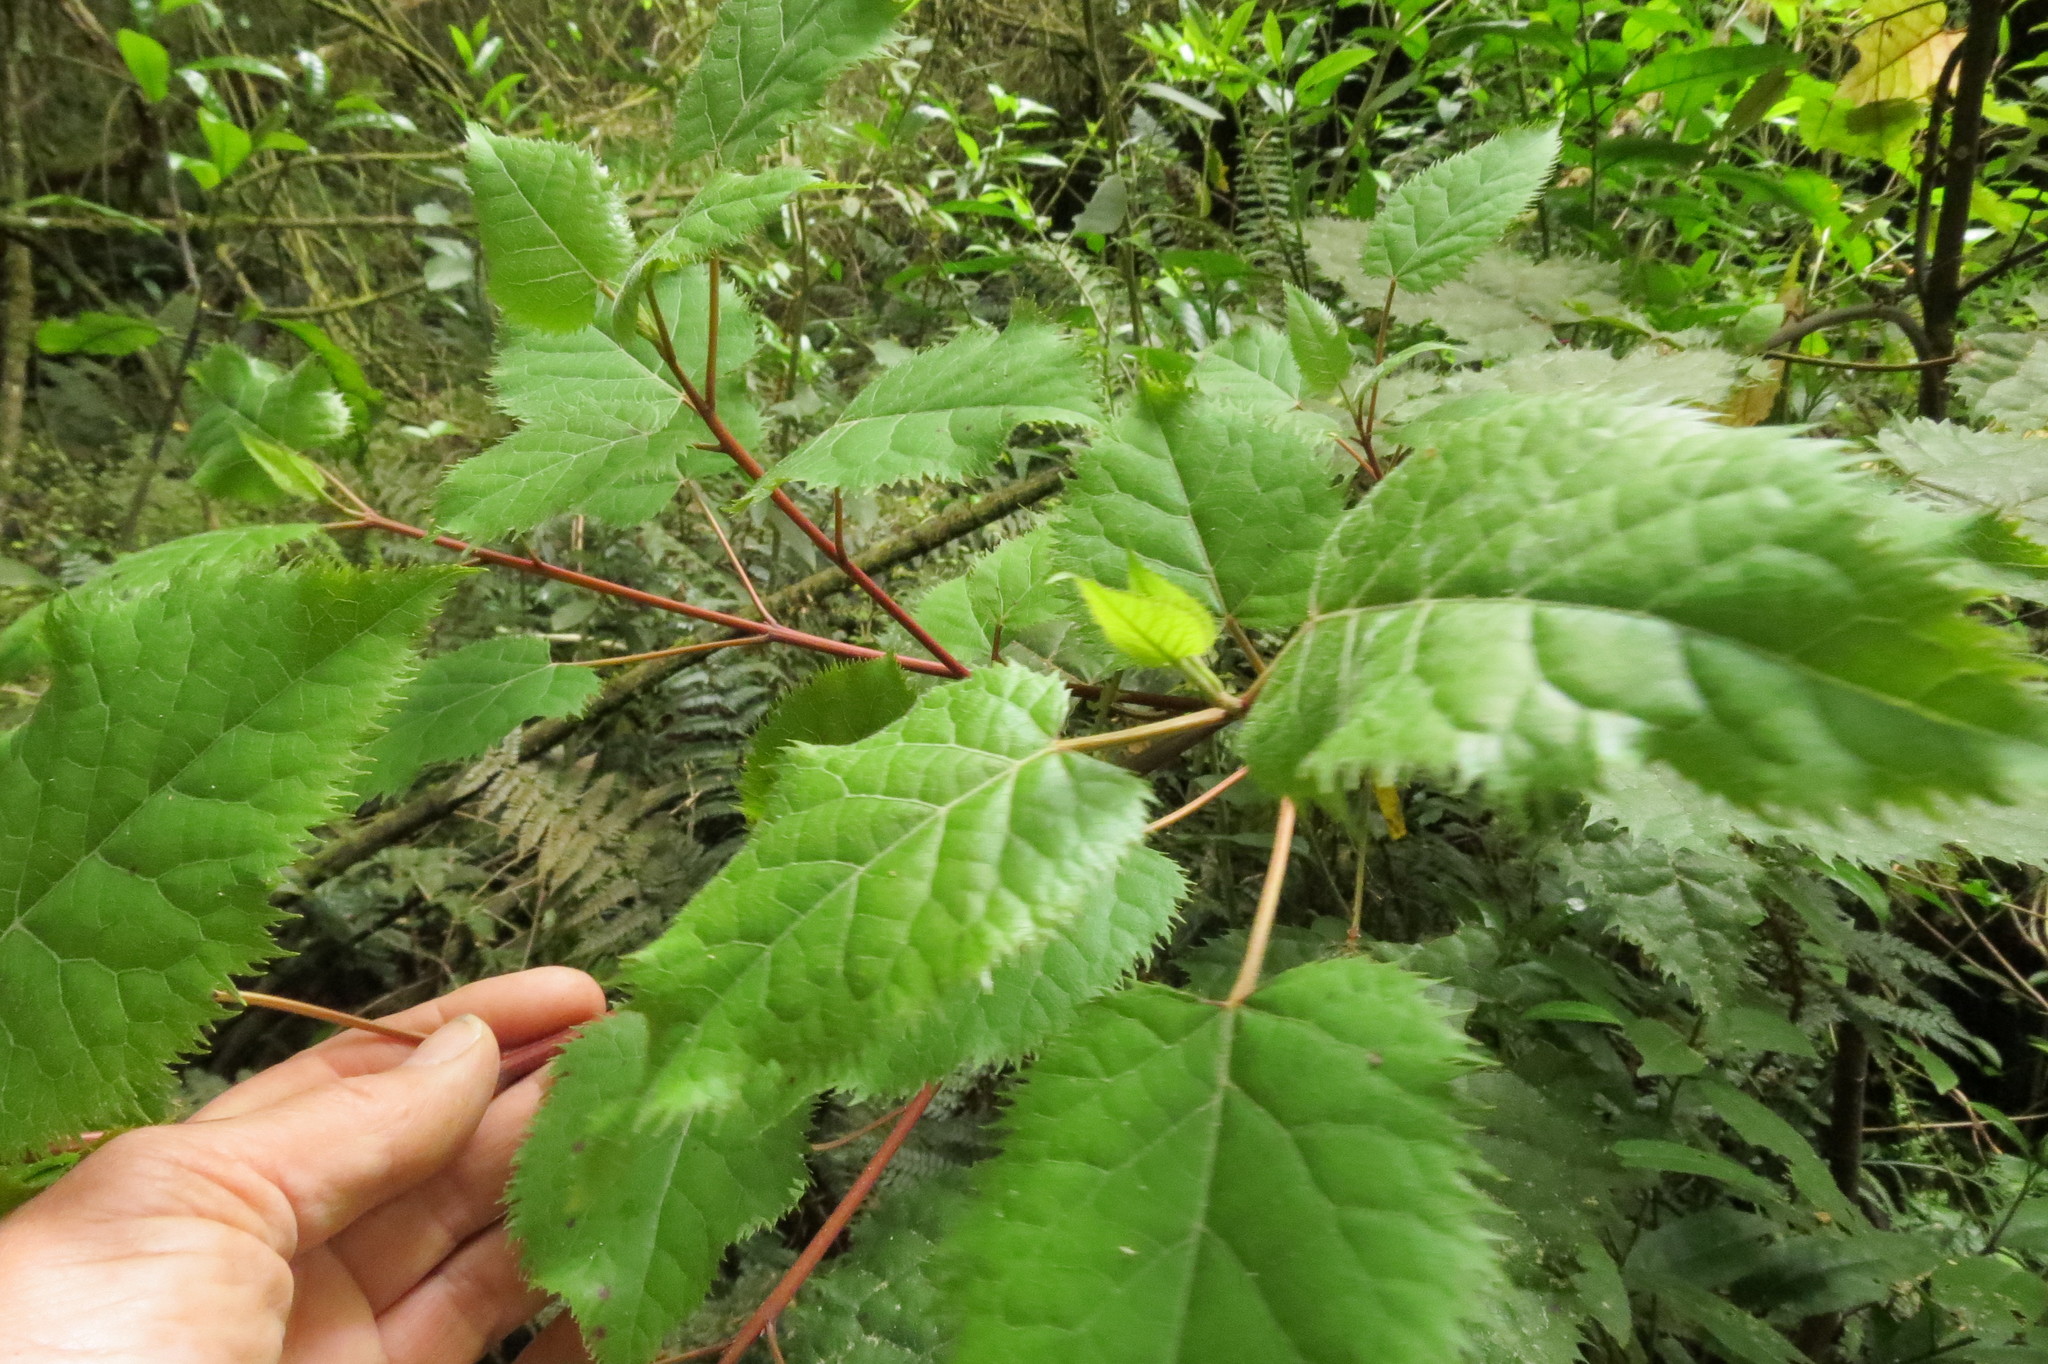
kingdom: Plantae
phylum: Tracheophyta
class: Magnoliopsida
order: Oxalidales
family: Elaeocarpaceae
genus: Aristotelia
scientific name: Aristotelia serrata
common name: New zealand wineberry
